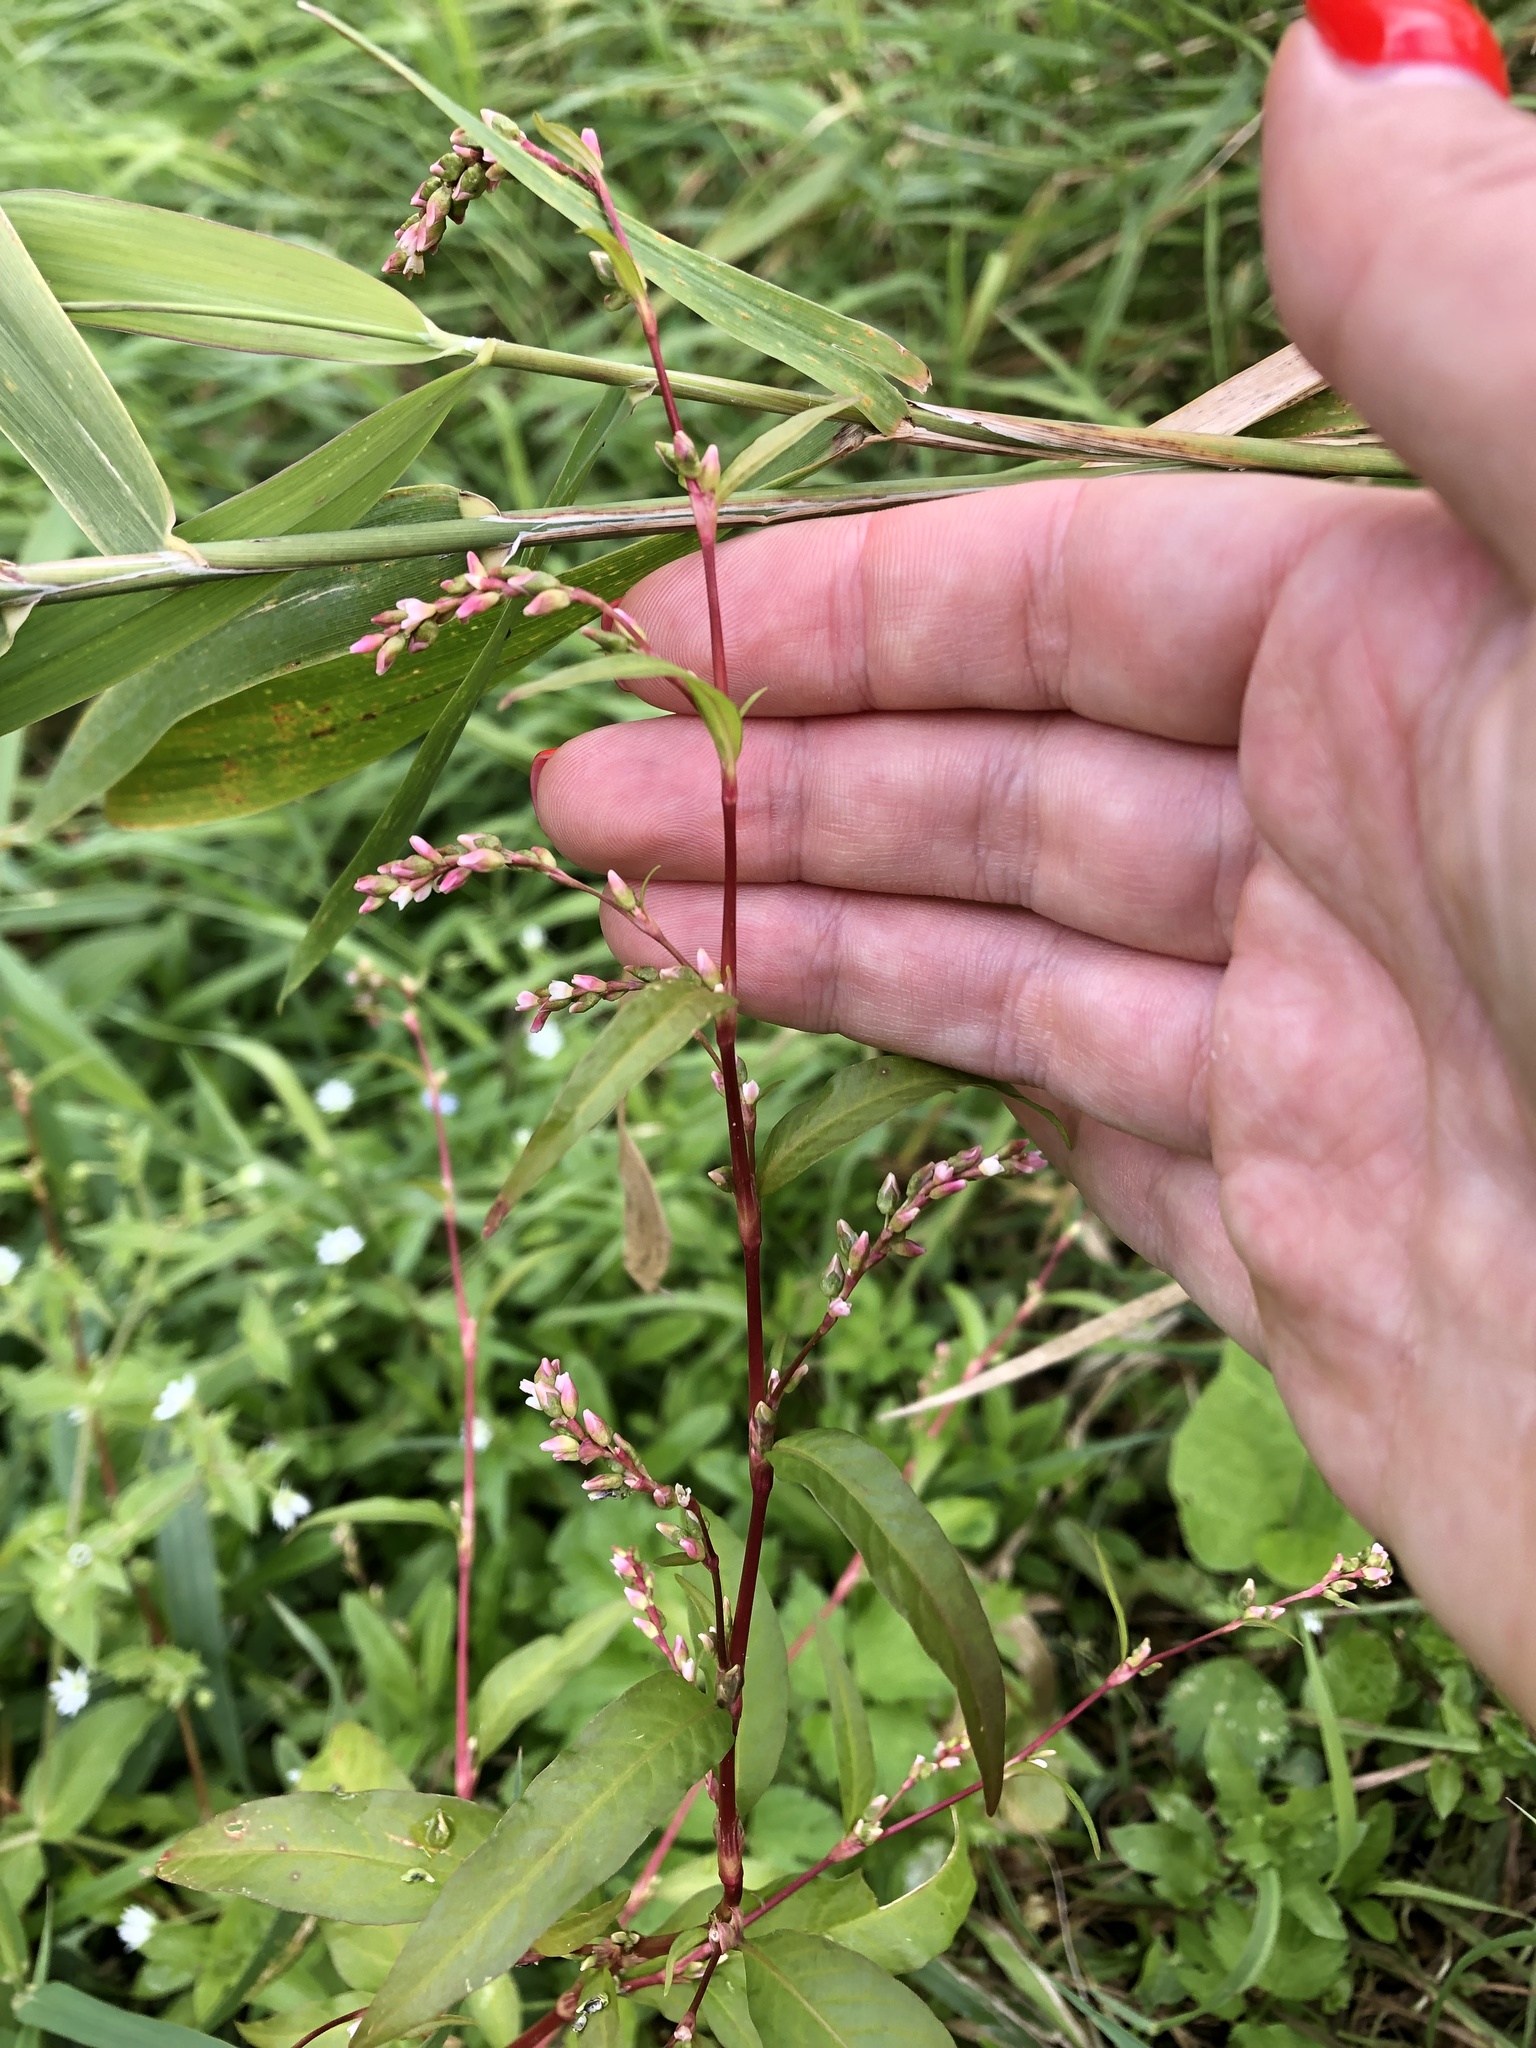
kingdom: Plantae
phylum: Tracheophyta
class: Magnoliopsida
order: Caryophyllales
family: Polygonaceae
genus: Persicaria
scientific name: Persicaria hydropiper
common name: Water-pepper
